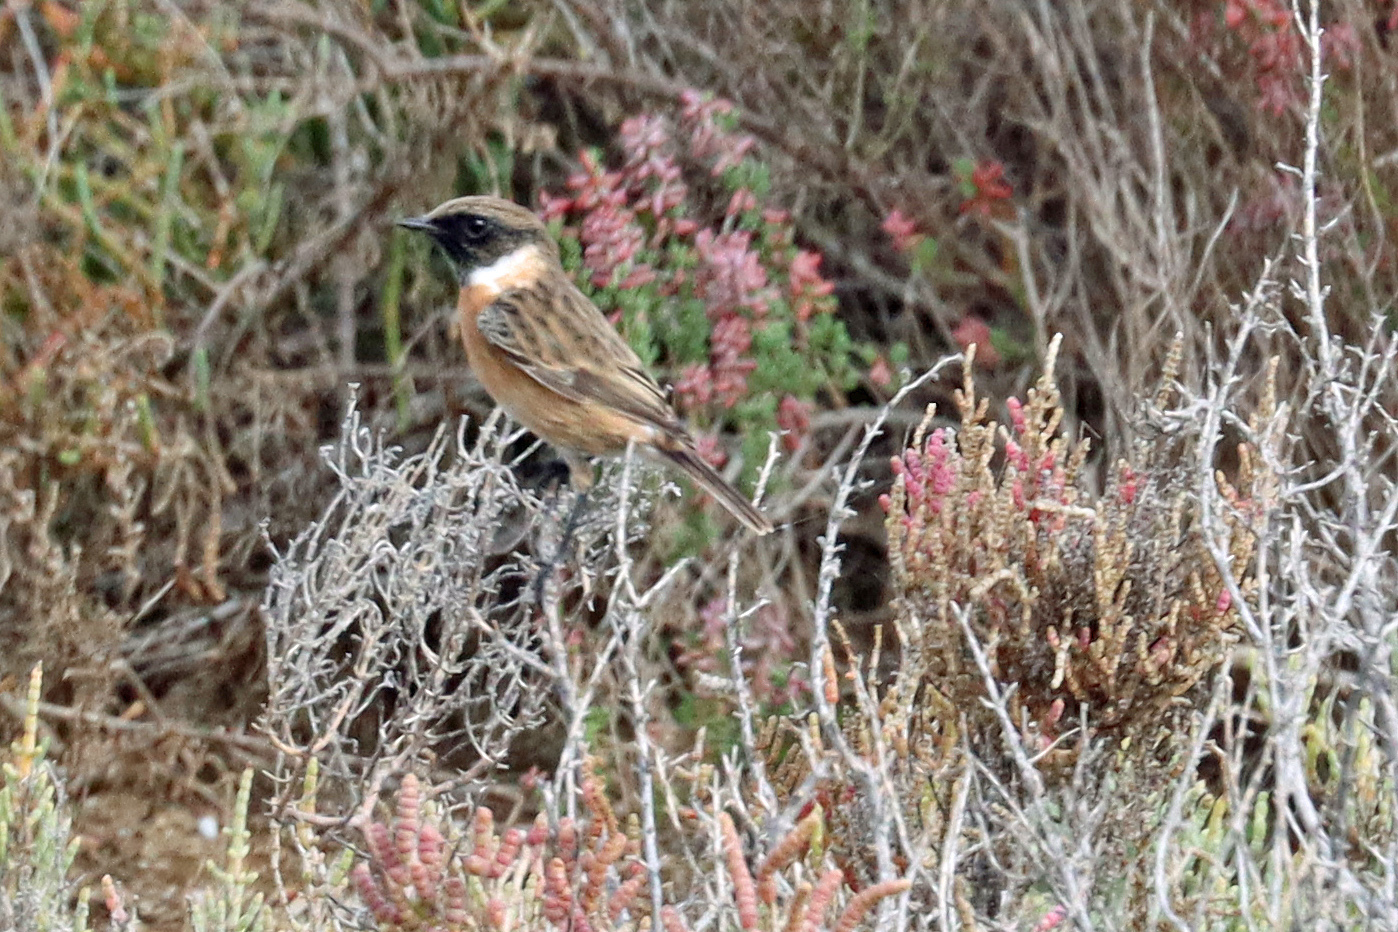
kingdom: Animalia
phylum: Chordata
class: Aves
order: Passeriformes
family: Muscicapidae
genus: Saxicola
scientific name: Saxicola rubicola
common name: European stonechat
